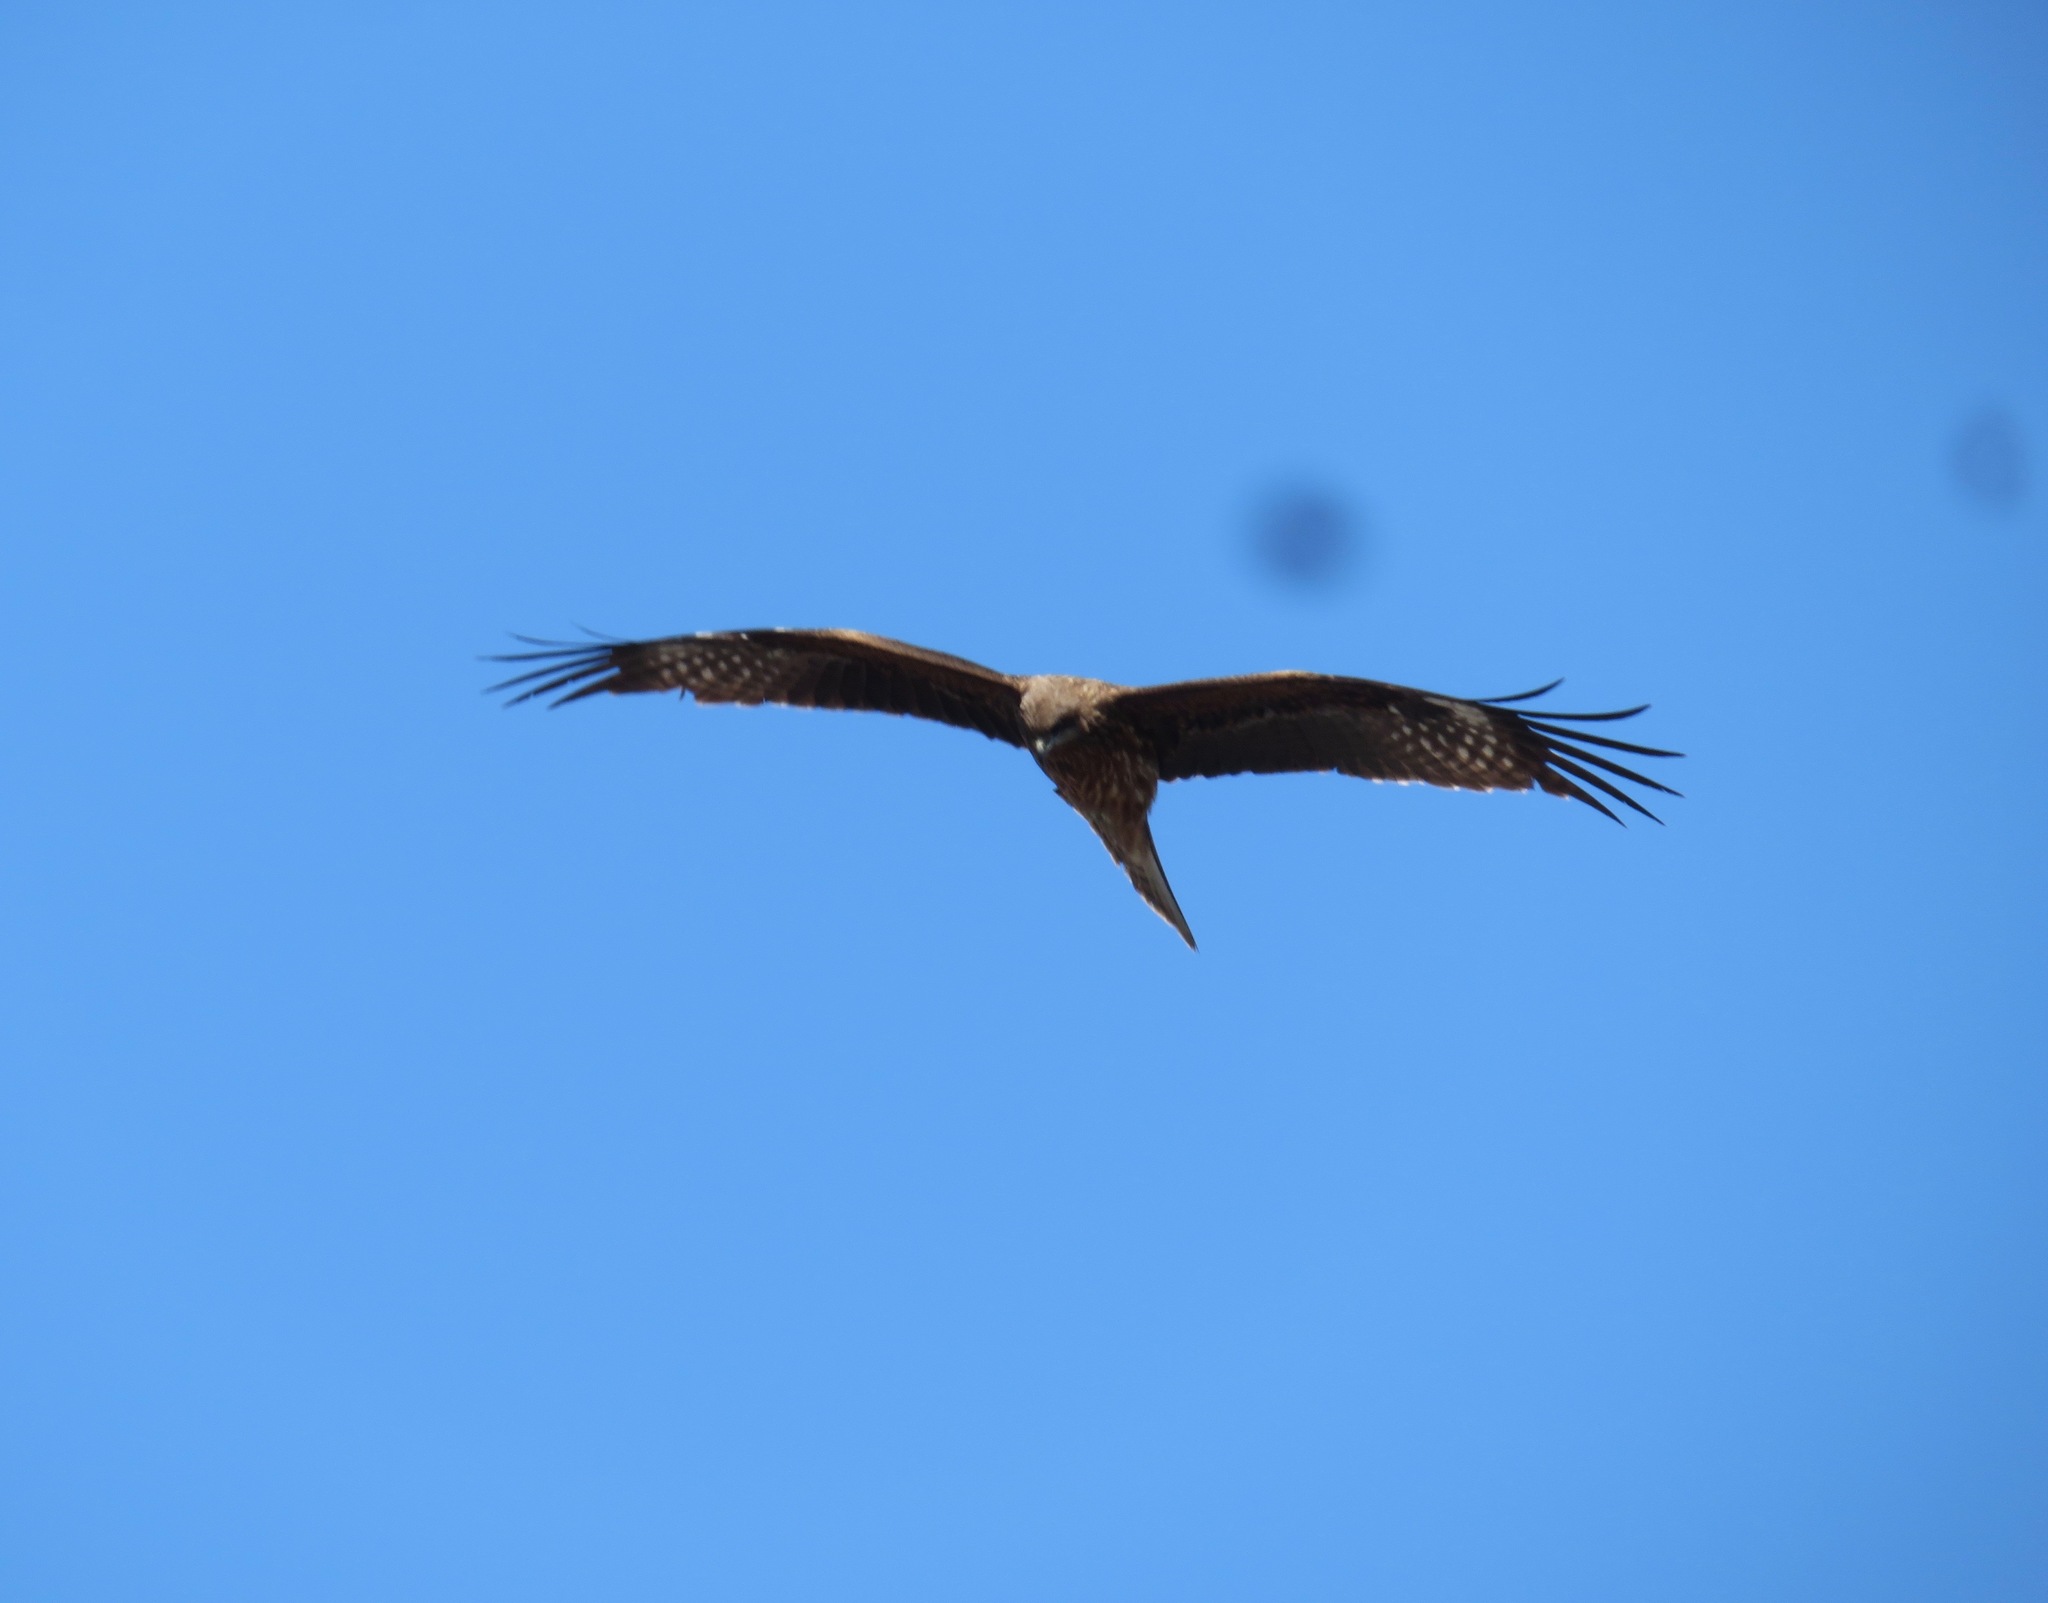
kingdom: Animalia
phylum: Chordata
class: Aves
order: Accipitriformes
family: Accipitridae
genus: Milvus
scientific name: Milvus migrans
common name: Black kite
